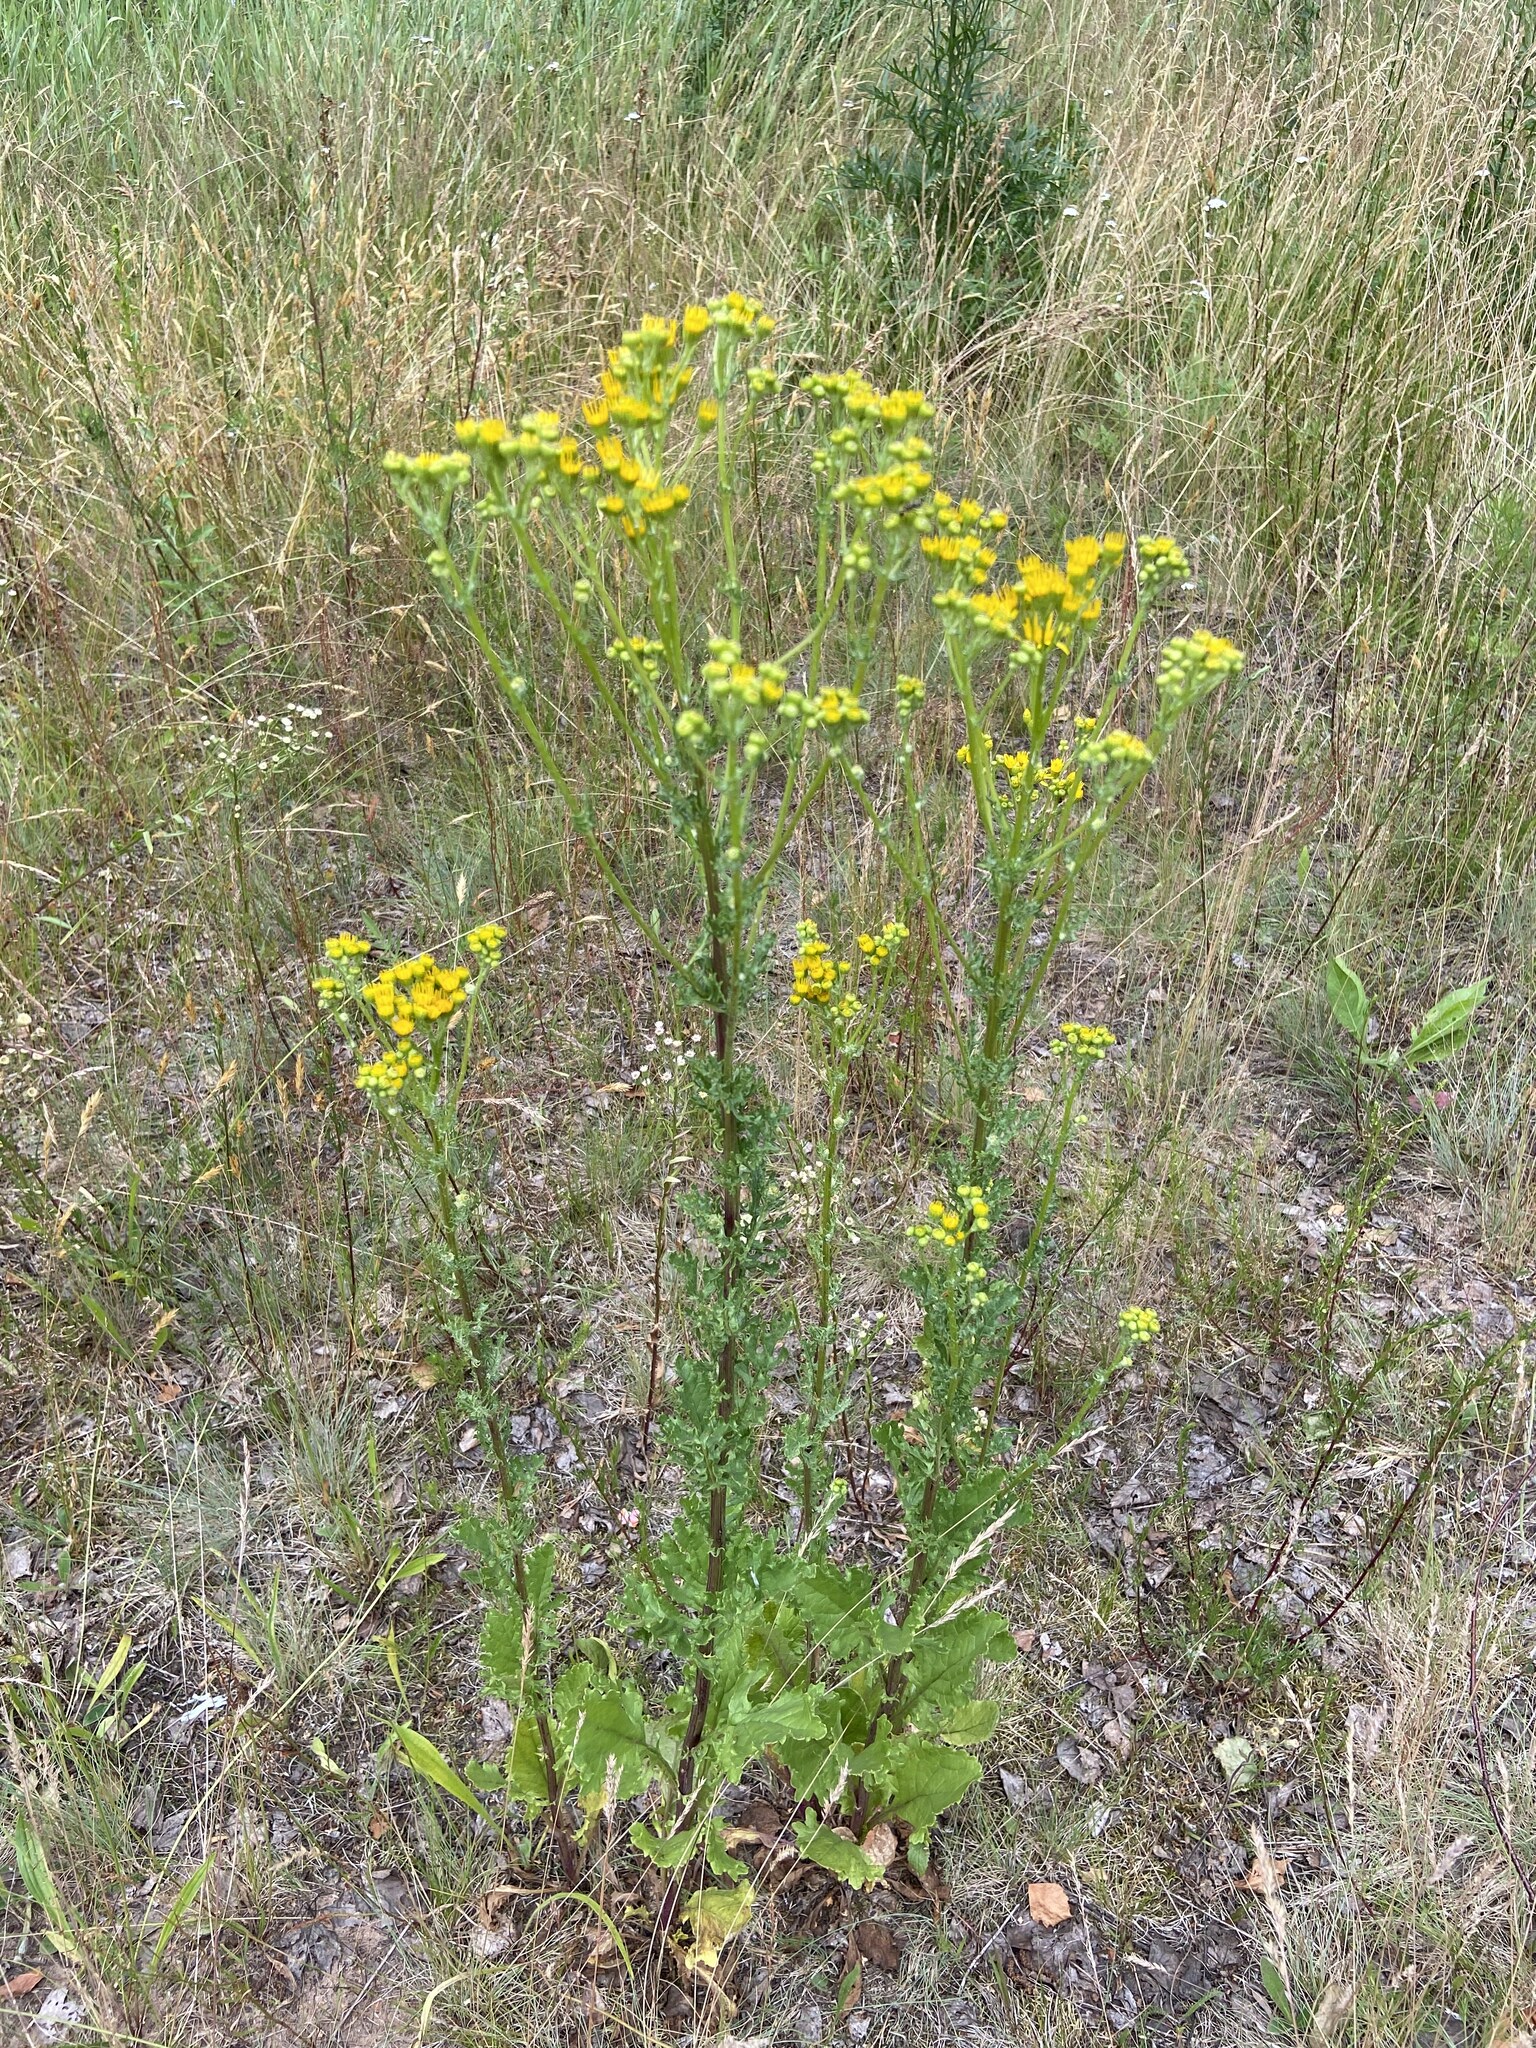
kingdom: Plantae
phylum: Tracheophyta
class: Magnoliopsida
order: Asterales
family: Asteraceae
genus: Jacobaea
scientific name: Jacobaea vulgaris
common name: Stinking willie
